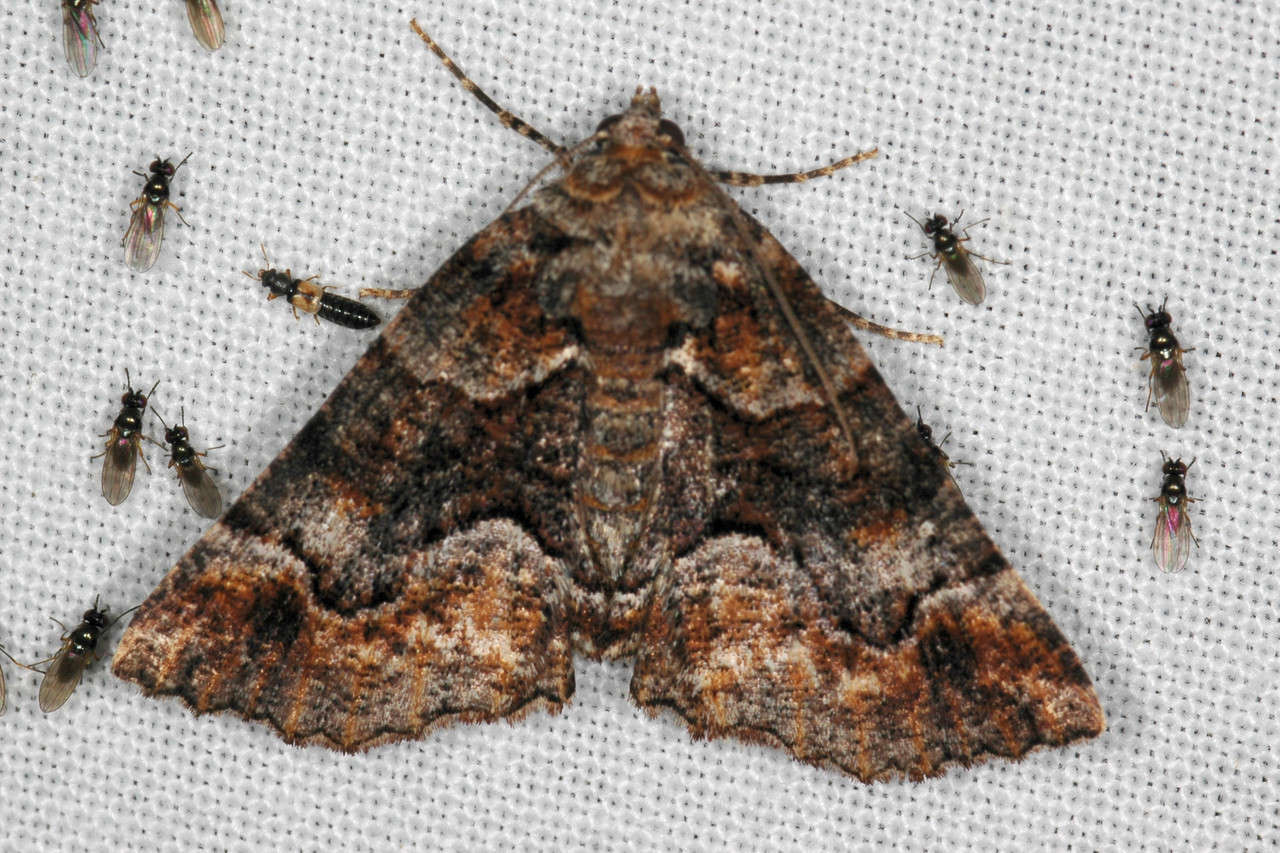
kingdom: Animalia
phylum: Arthropoda
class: Insecta
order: Lepidoptera
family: Geometridae
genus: Gastrina
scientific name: Gastrina cristaria
